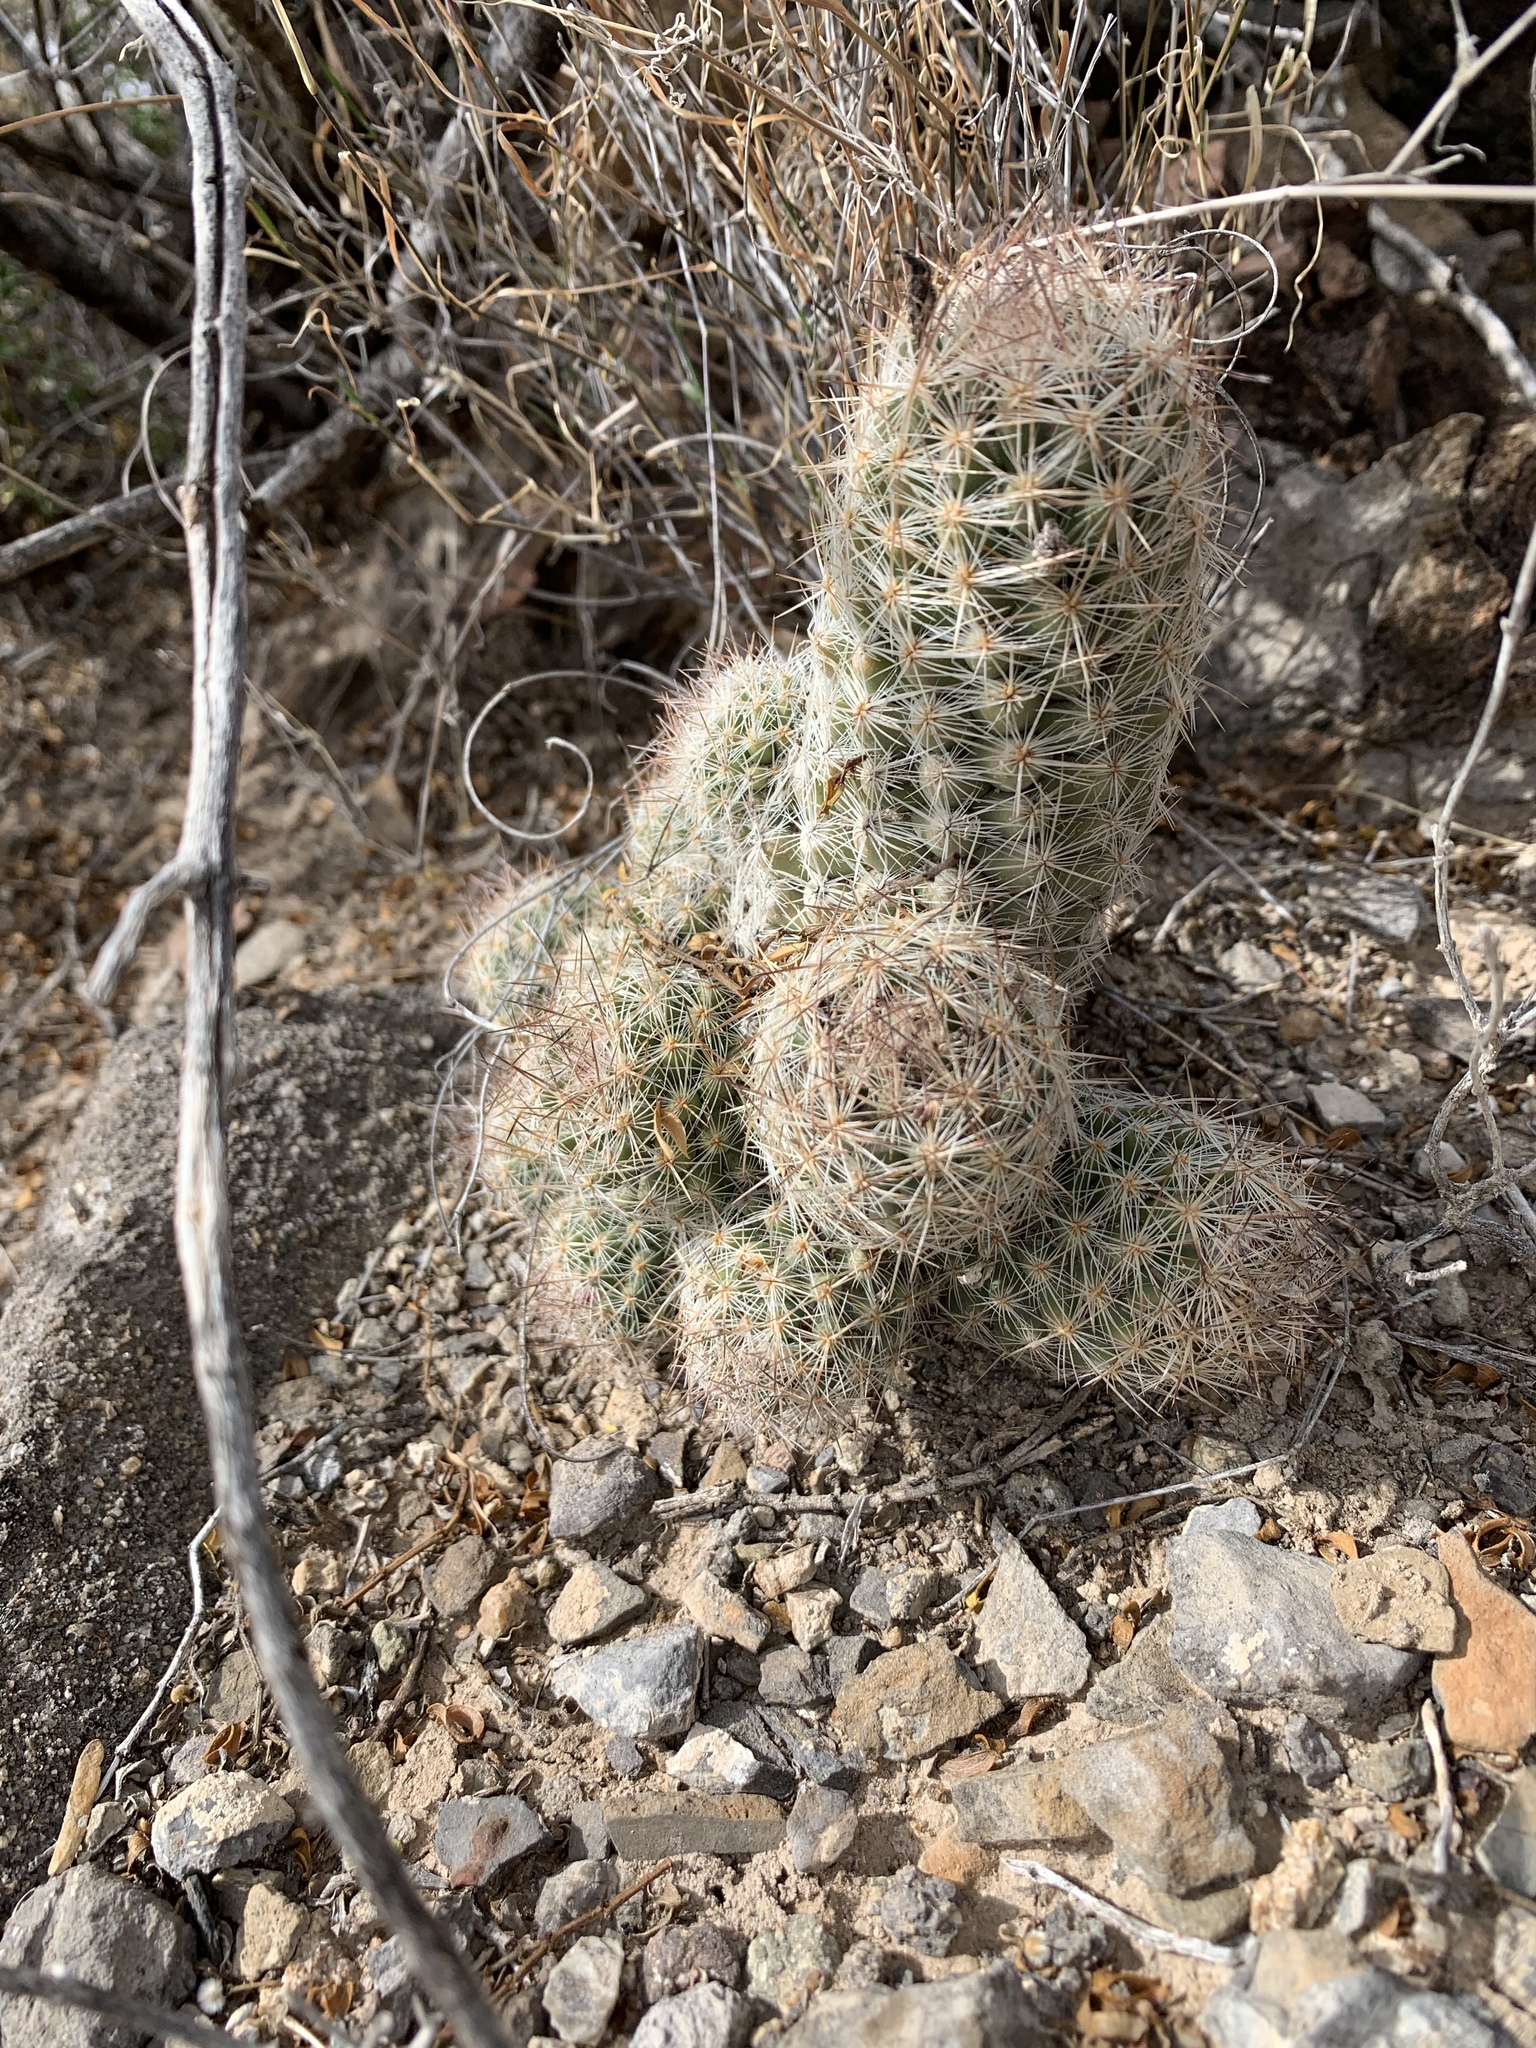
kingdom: Plantae
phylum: Tracheophyta
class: Magnoliopsida
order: Caryophyllales
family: Cactaceae
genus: Pelecyphora
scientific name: Pelecyphora tuberculosa
